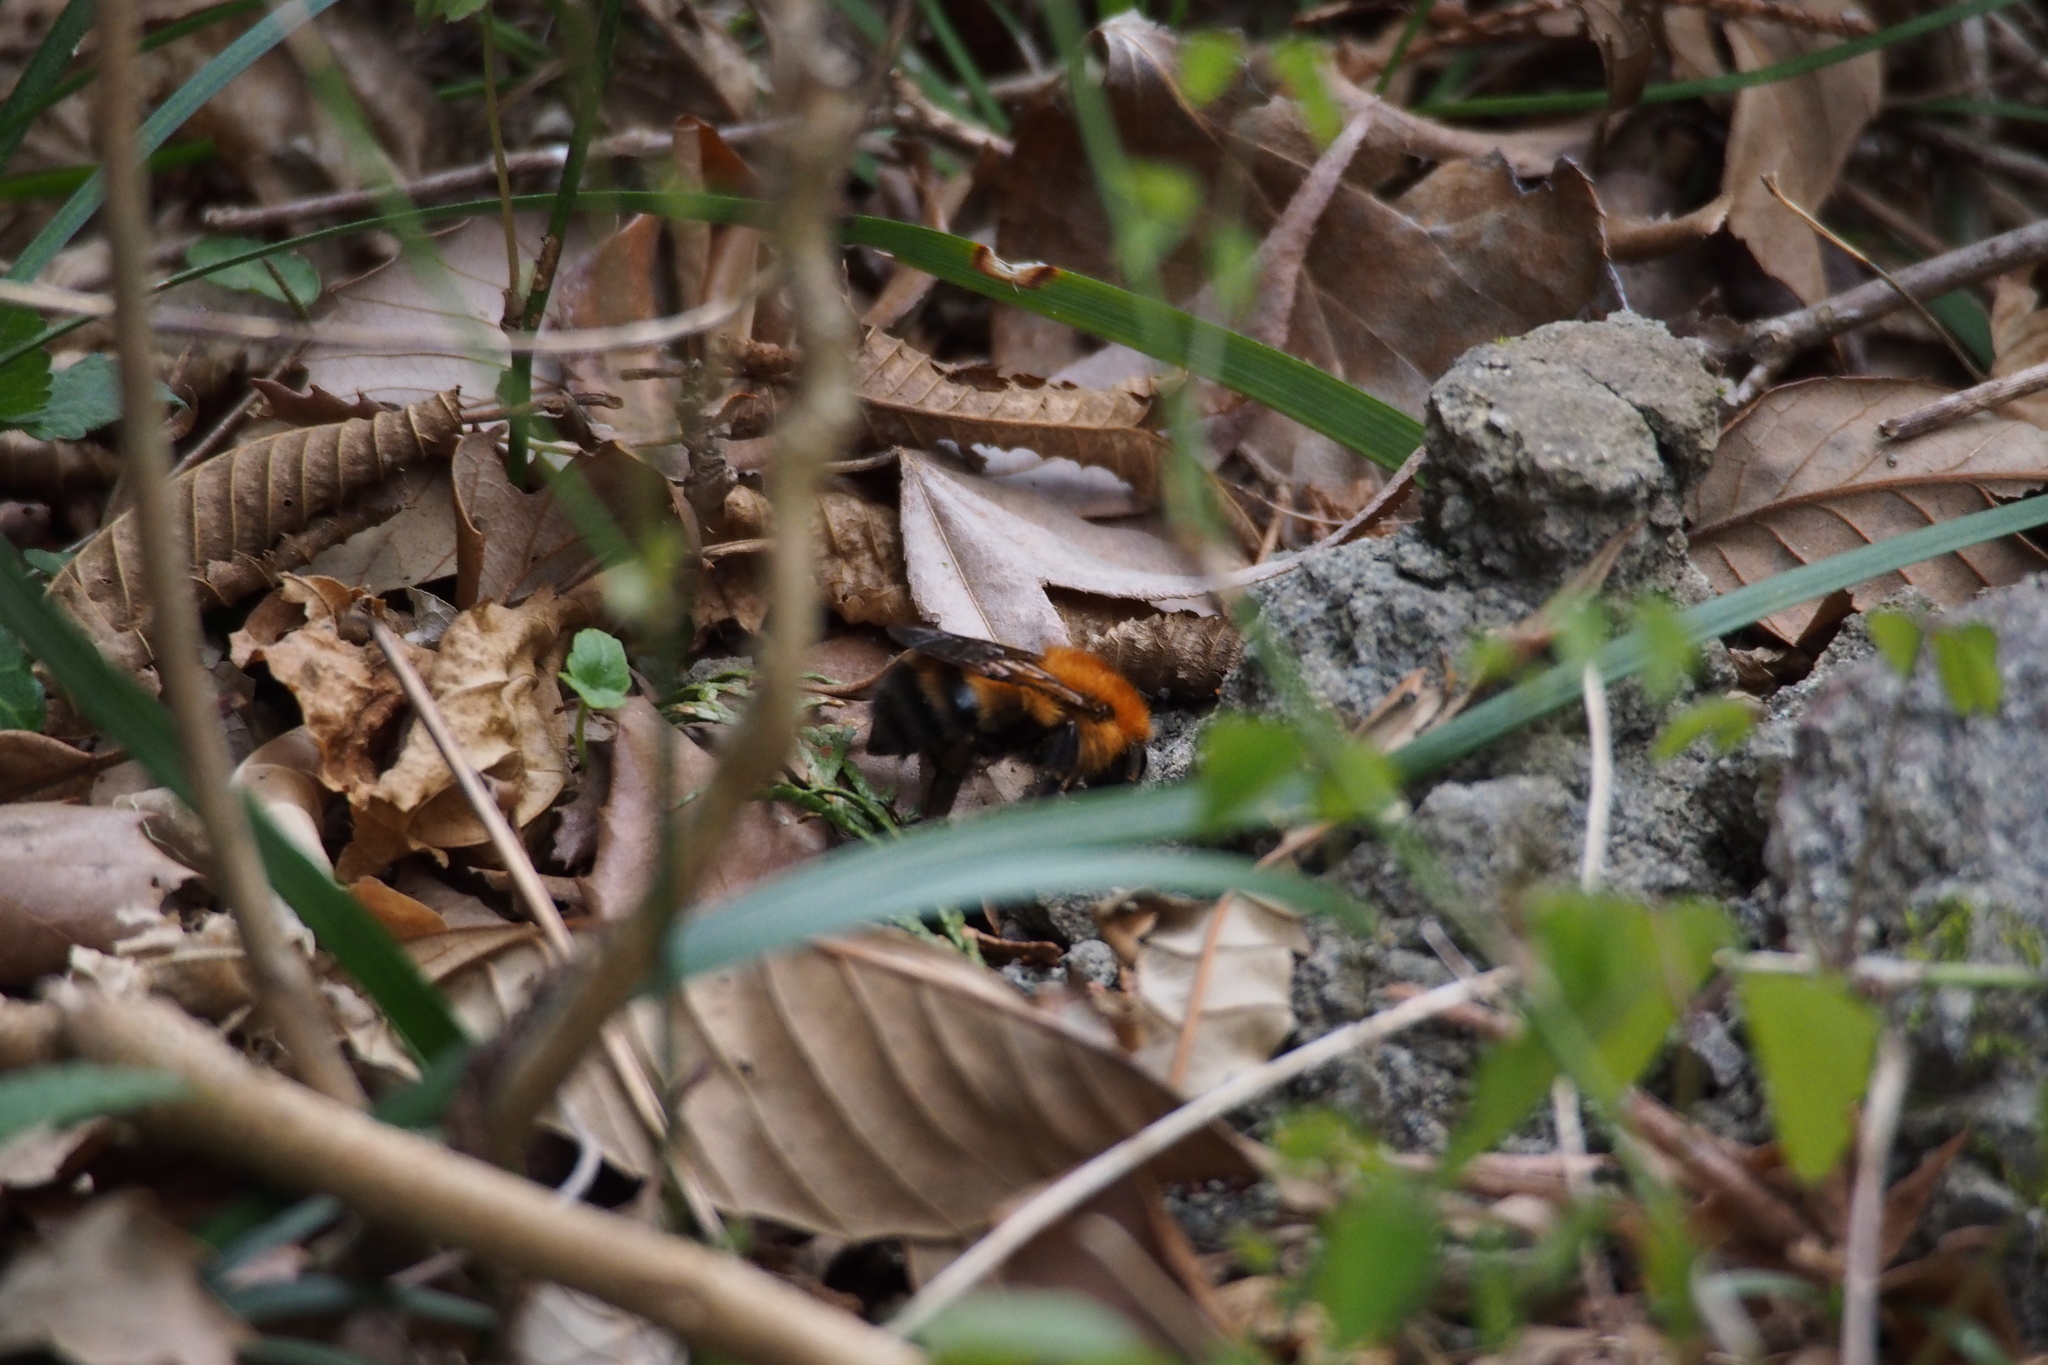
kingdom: Animalia
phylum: Arthropoda
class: Insecta
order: Hymenoptera
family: Apidae
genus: Bombus
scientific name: Bombus diversus
